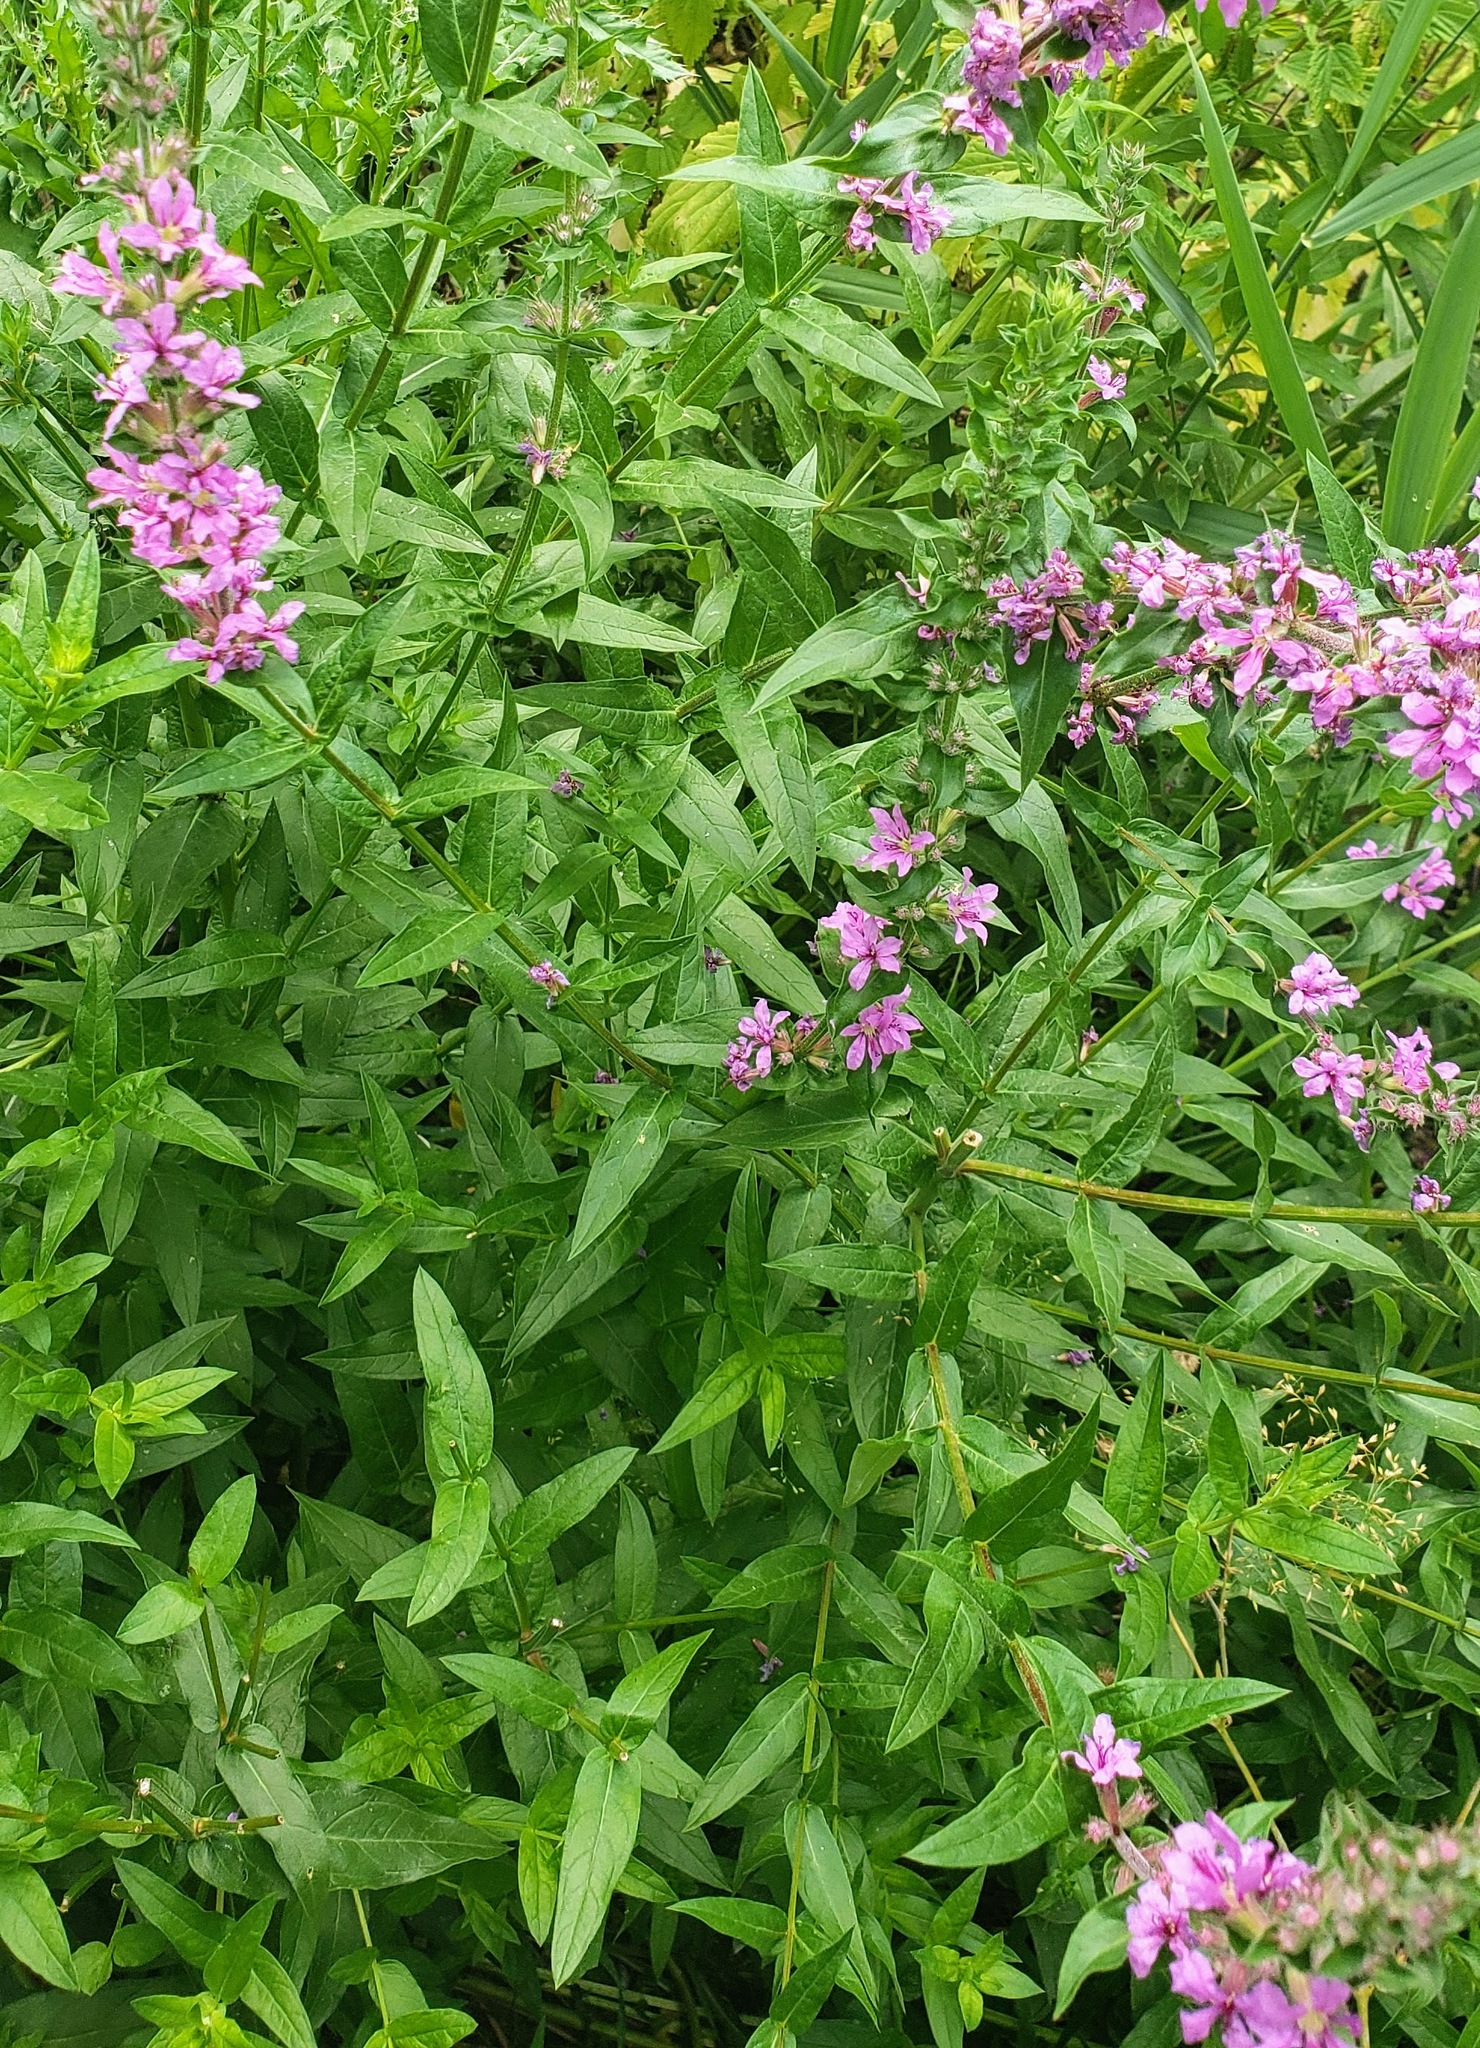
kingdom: Plantae
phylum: Tracheophyta
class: Magnoliopsida
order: Myrtales
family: Lythraceae
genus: Lythrum
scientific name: Lythrum salicaria
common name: Purple loosestrife
